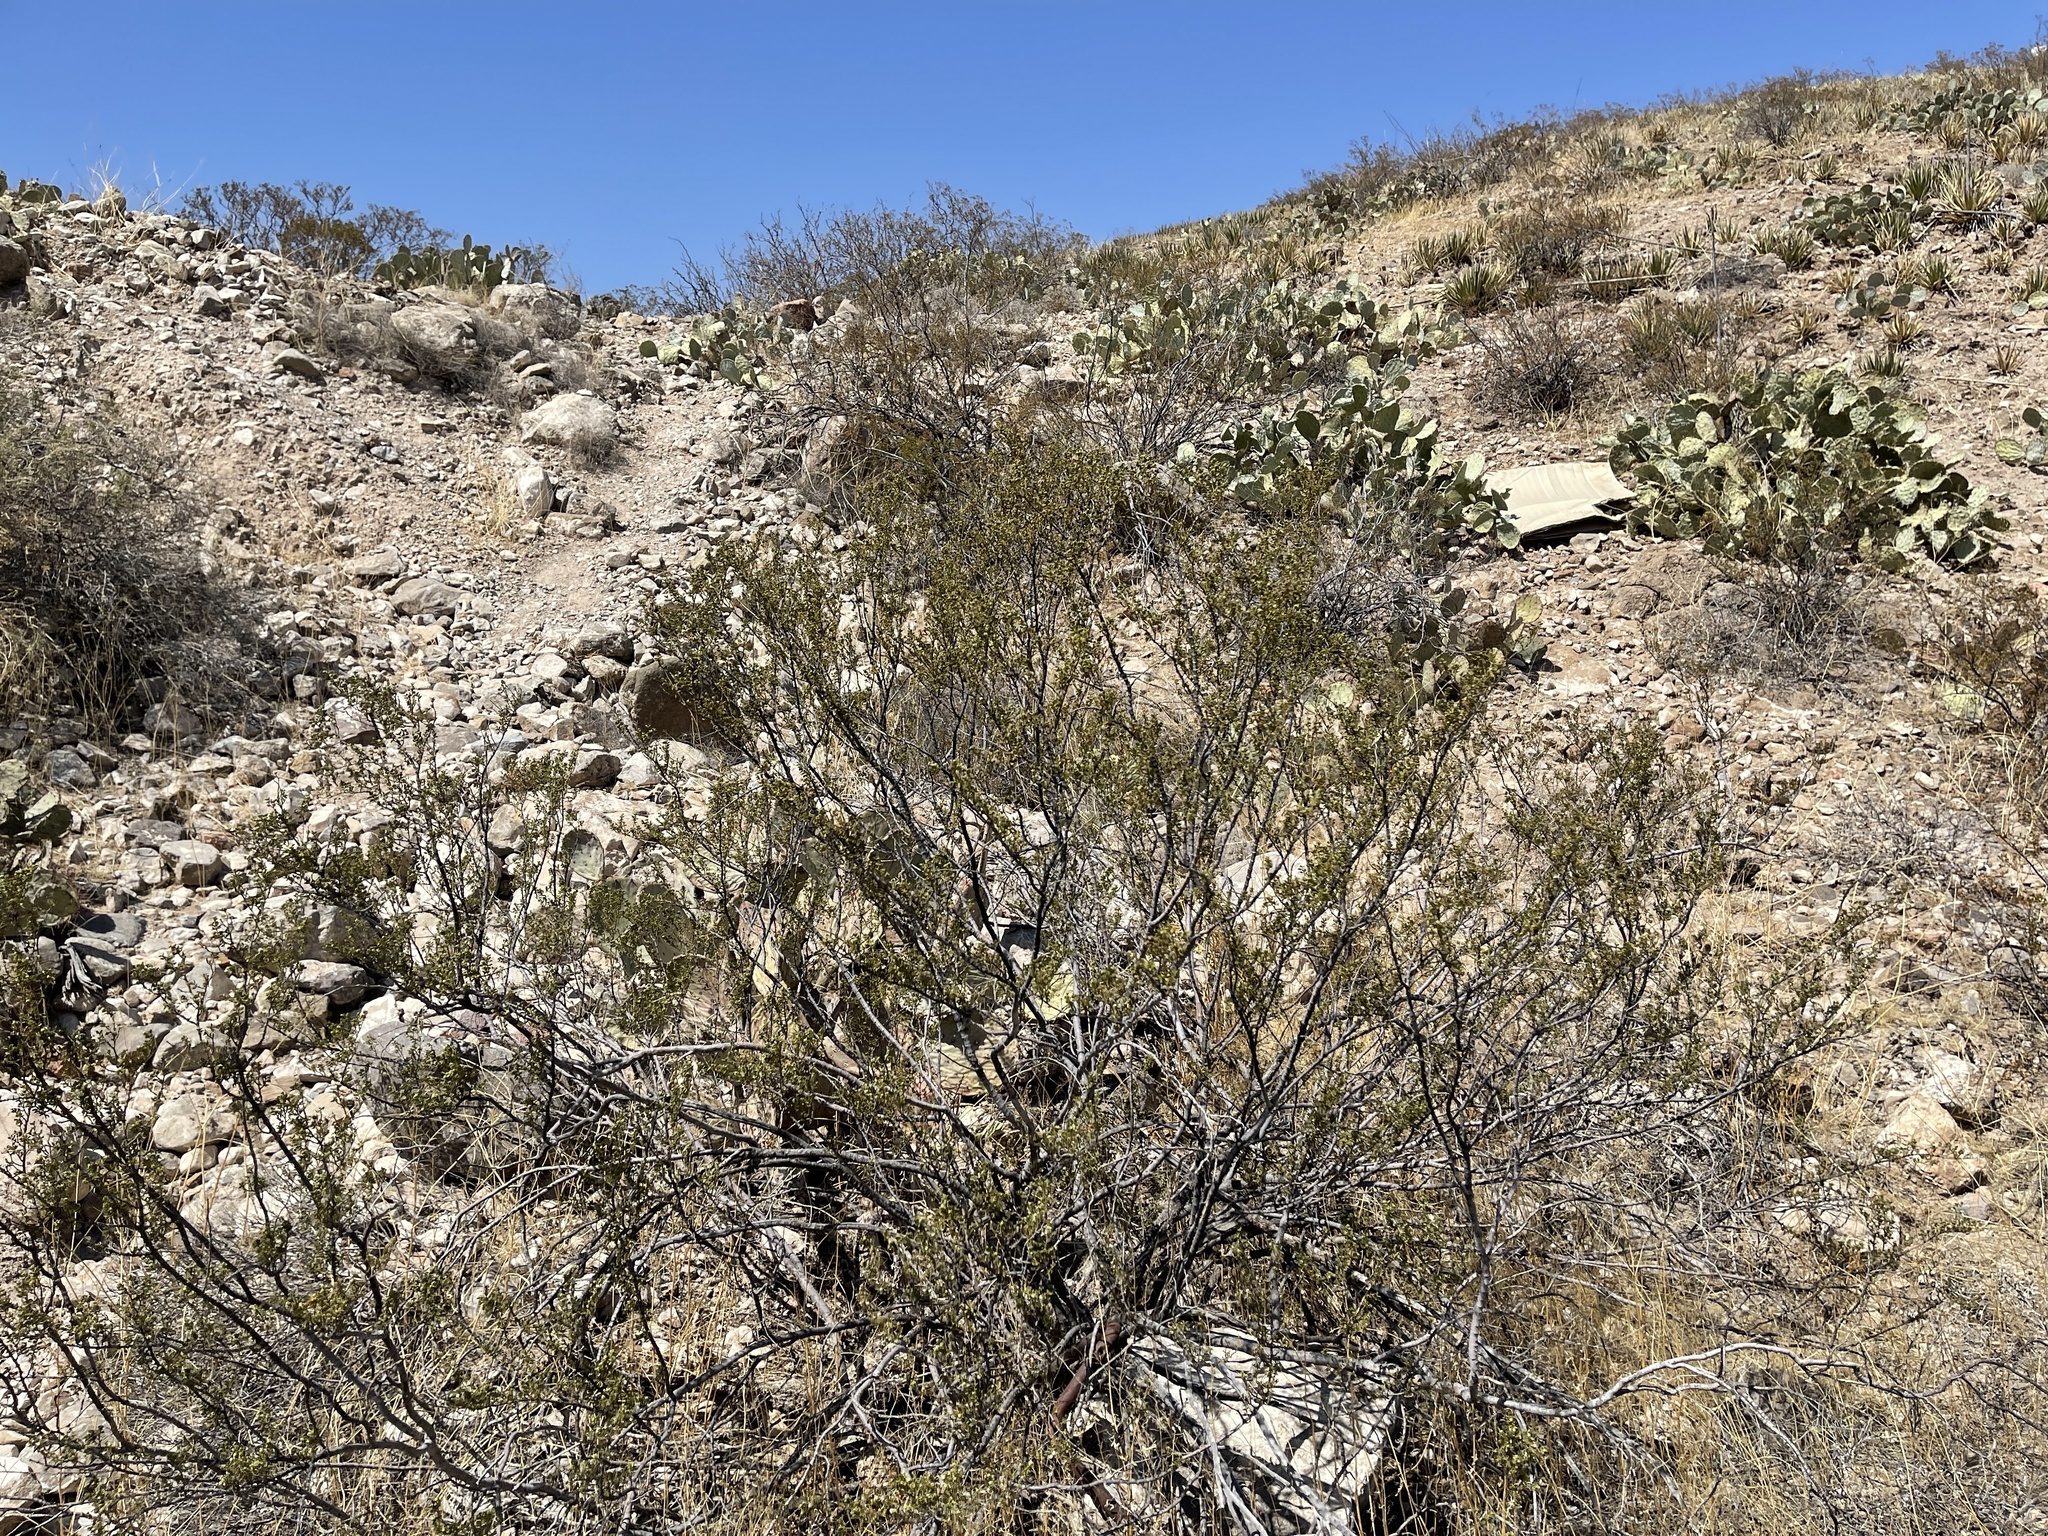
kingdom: Plantae
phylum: Tracheophyta
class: Magnoliopsida
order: Zygophyllales
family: Zygophyllaceae
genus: Larrea
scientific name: Larrea tridentata
